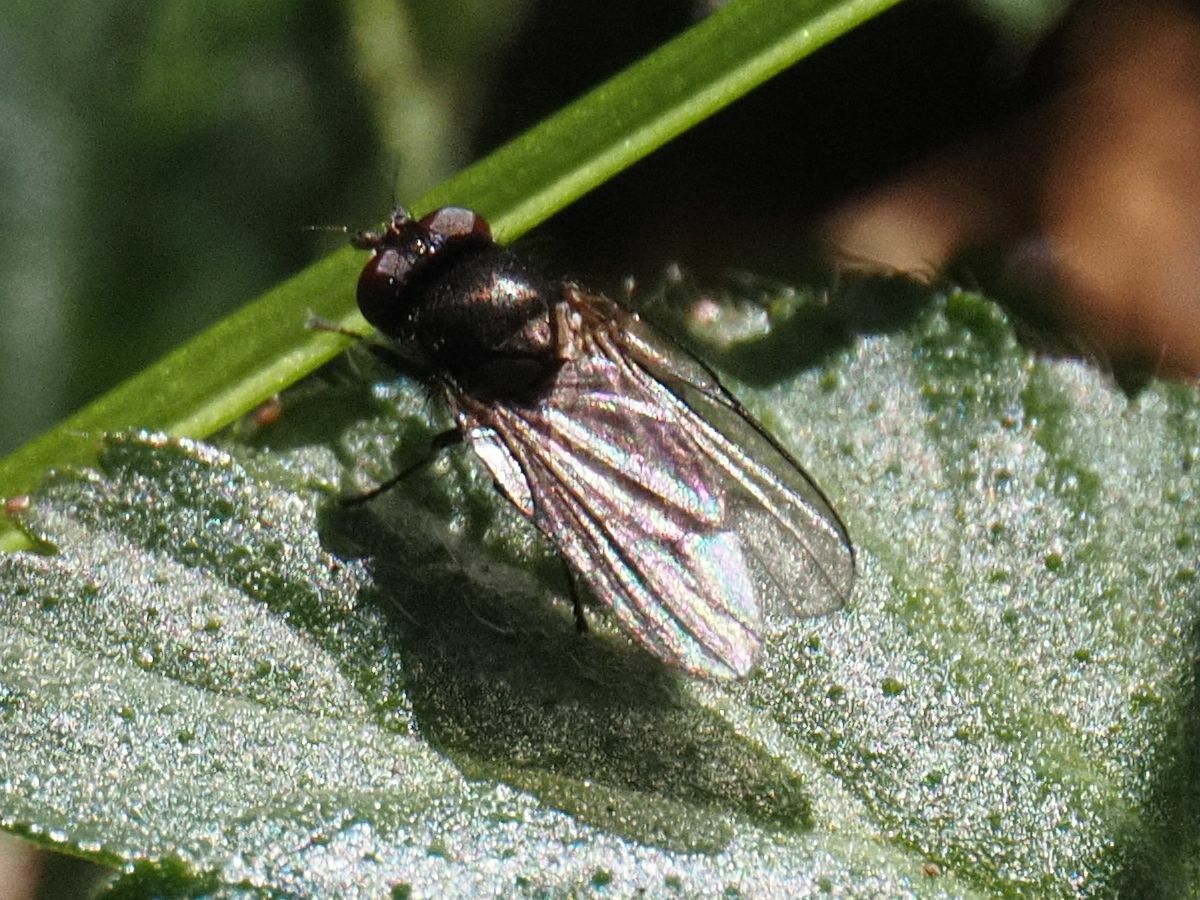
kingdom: Animalia
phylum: Arthropoda
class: Insecta
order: Diptera
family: Lonchaeidae
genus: Earomyia
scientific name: Earomyia lonchaeoides
